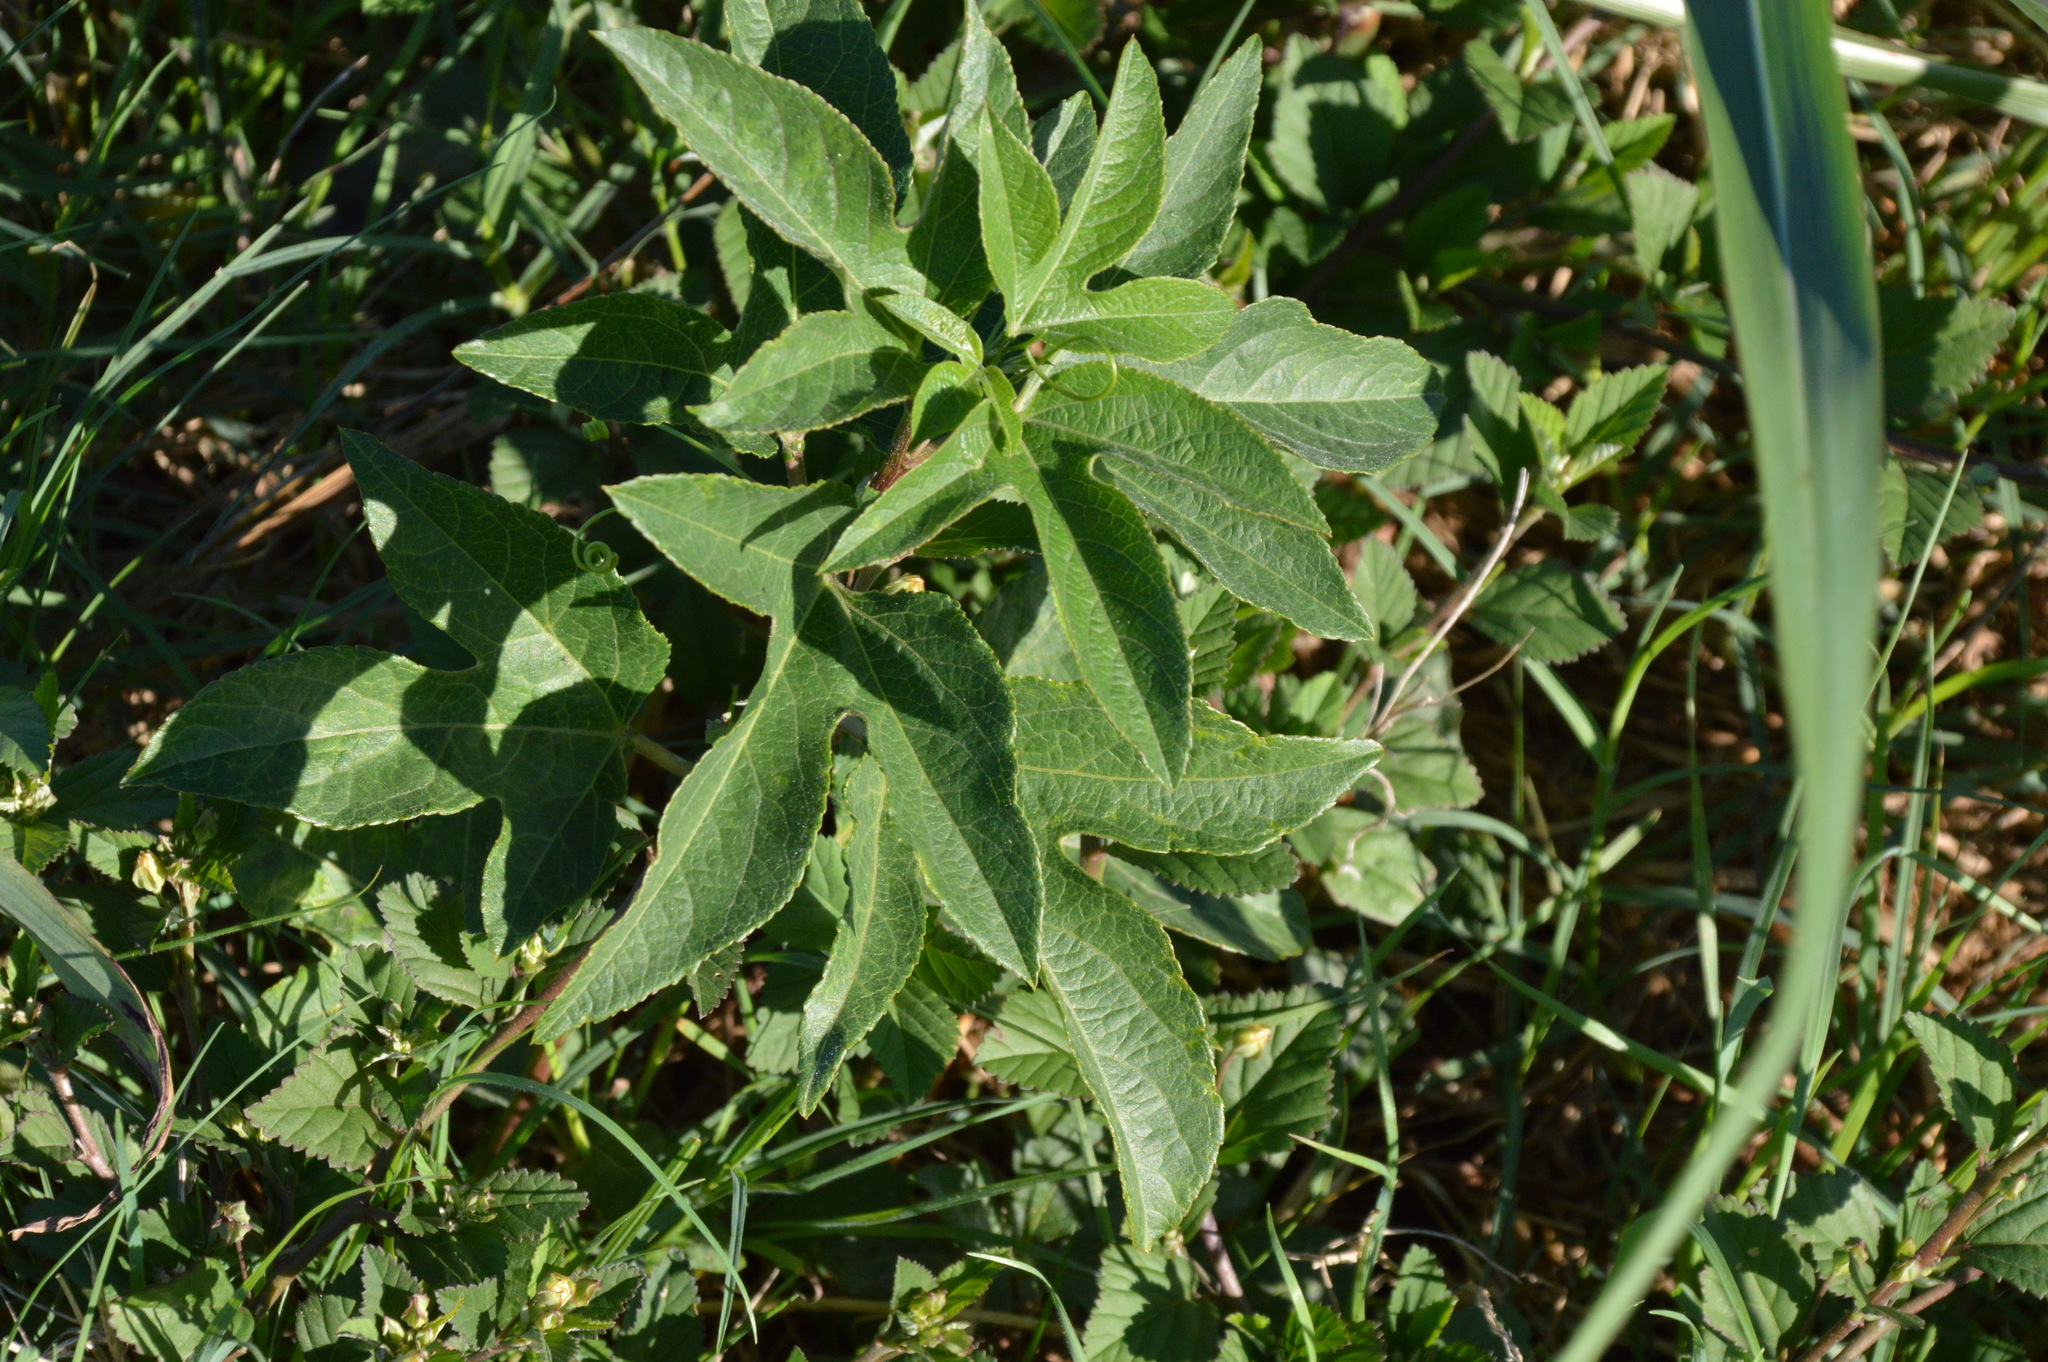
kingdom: Plantae
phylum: Tracheophyta
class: Magnoliopsida
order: Malpighiales
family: Passifloraceae
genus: Passiflora
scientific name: Passiflora incarnata
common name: Apricot-vine
